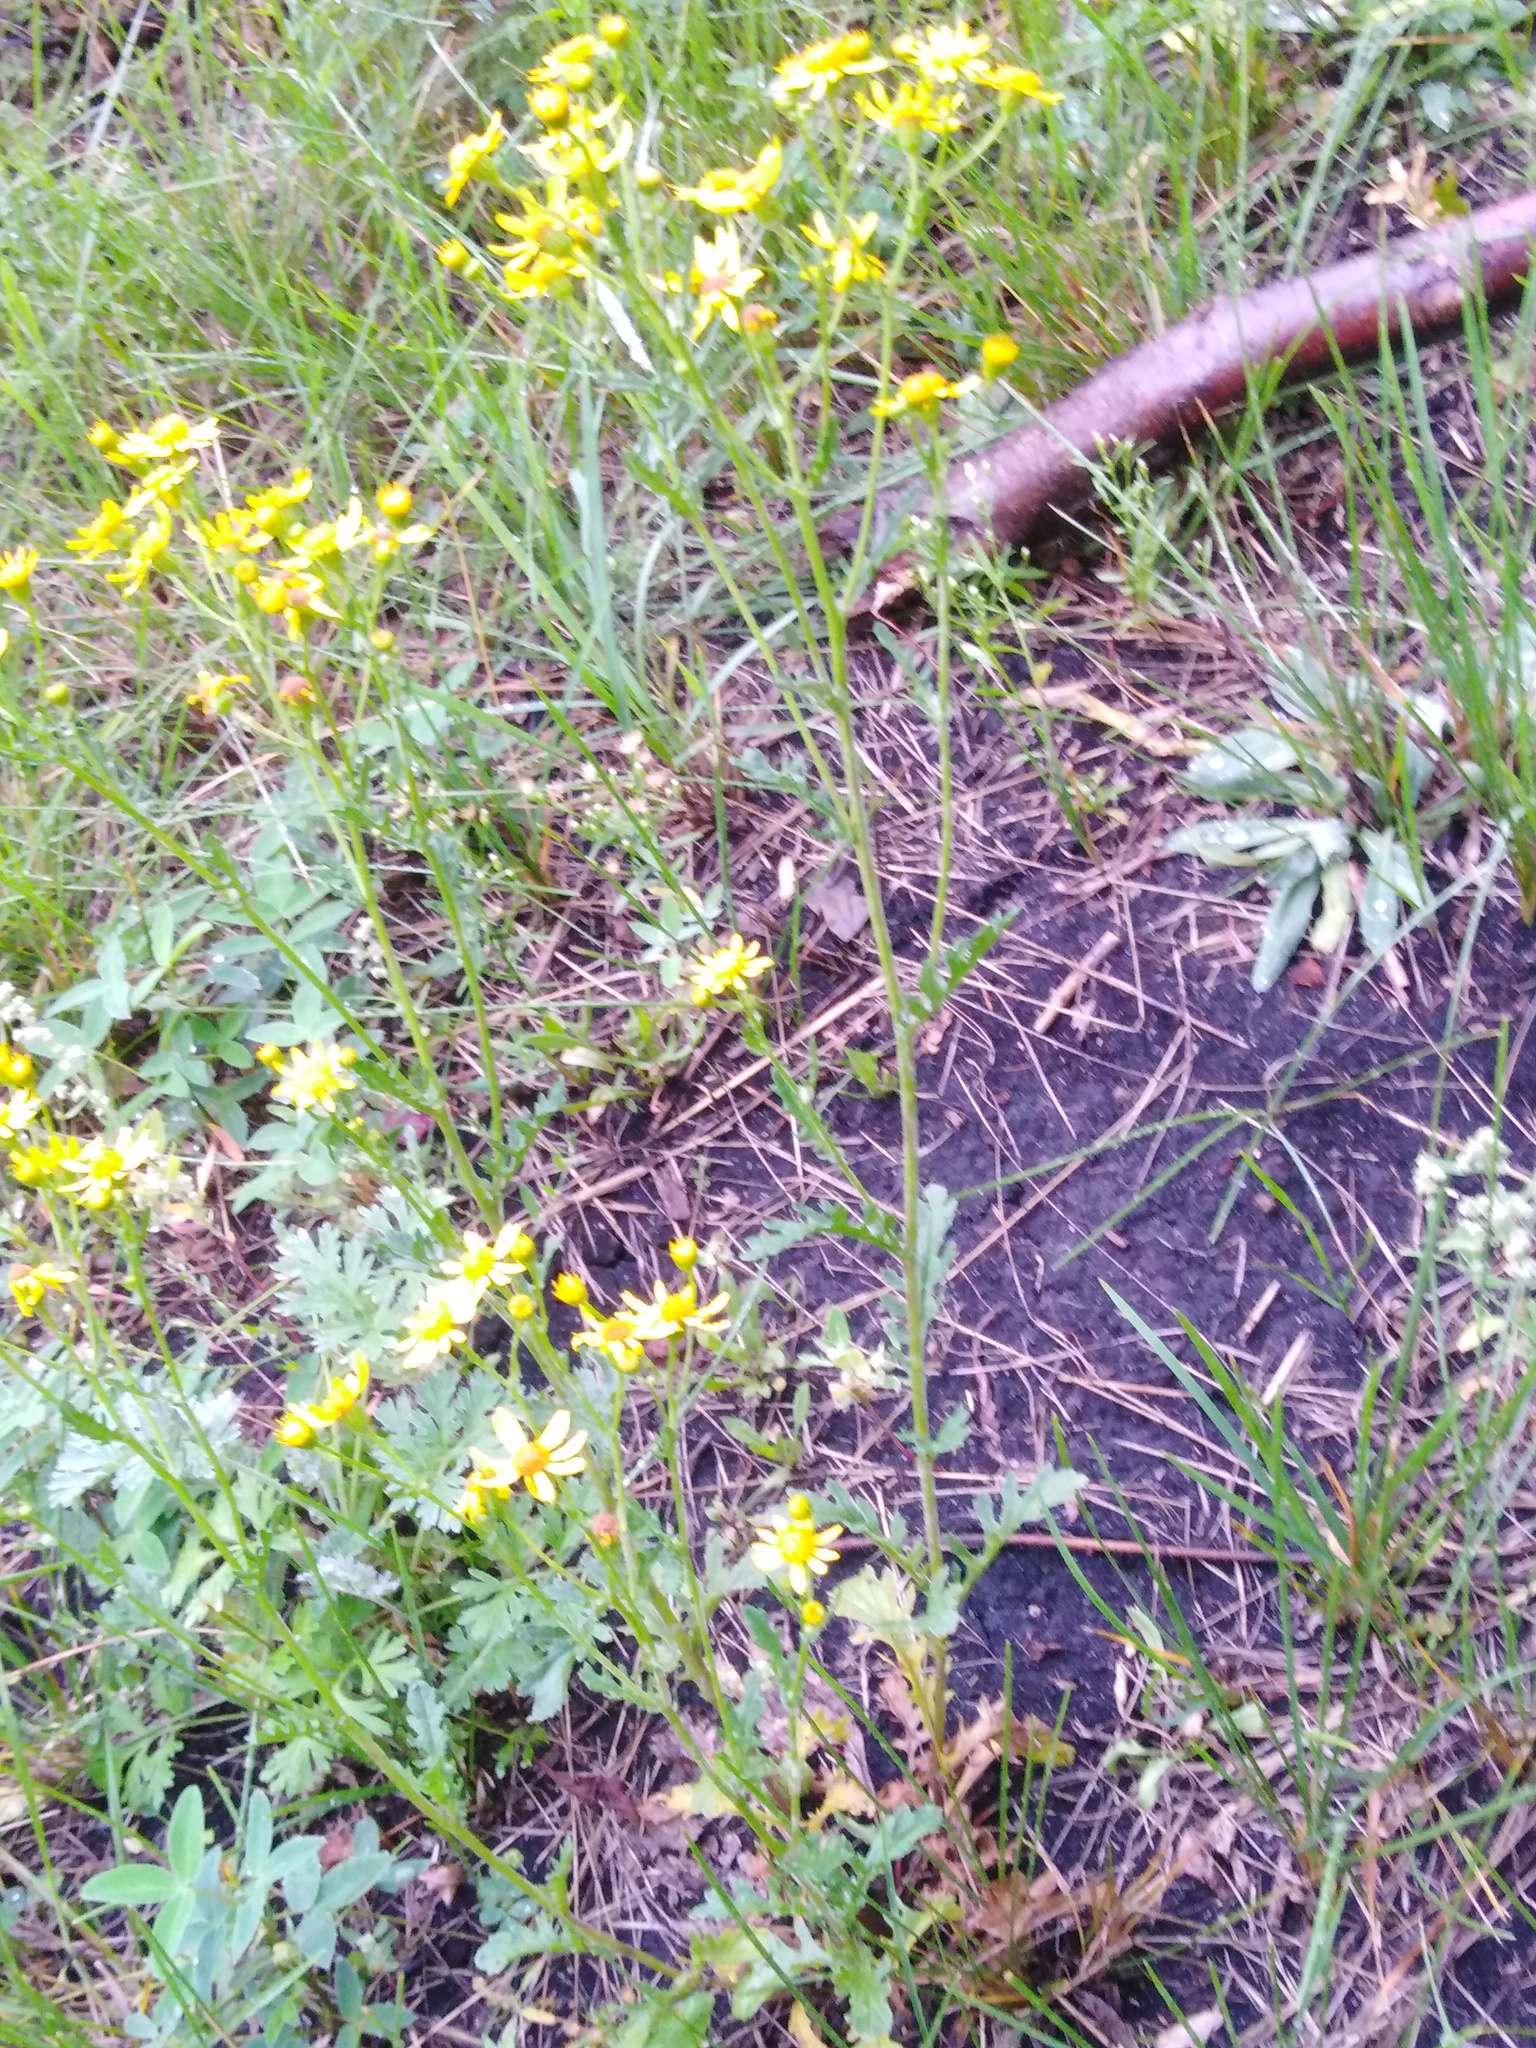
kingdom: Plantae
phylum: Tracheophyta
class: Magnoliopsida
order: Asterales
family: Asteraceae
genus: Jacobaea
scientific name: Jacobaea vulgaris
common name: Stinking willie
